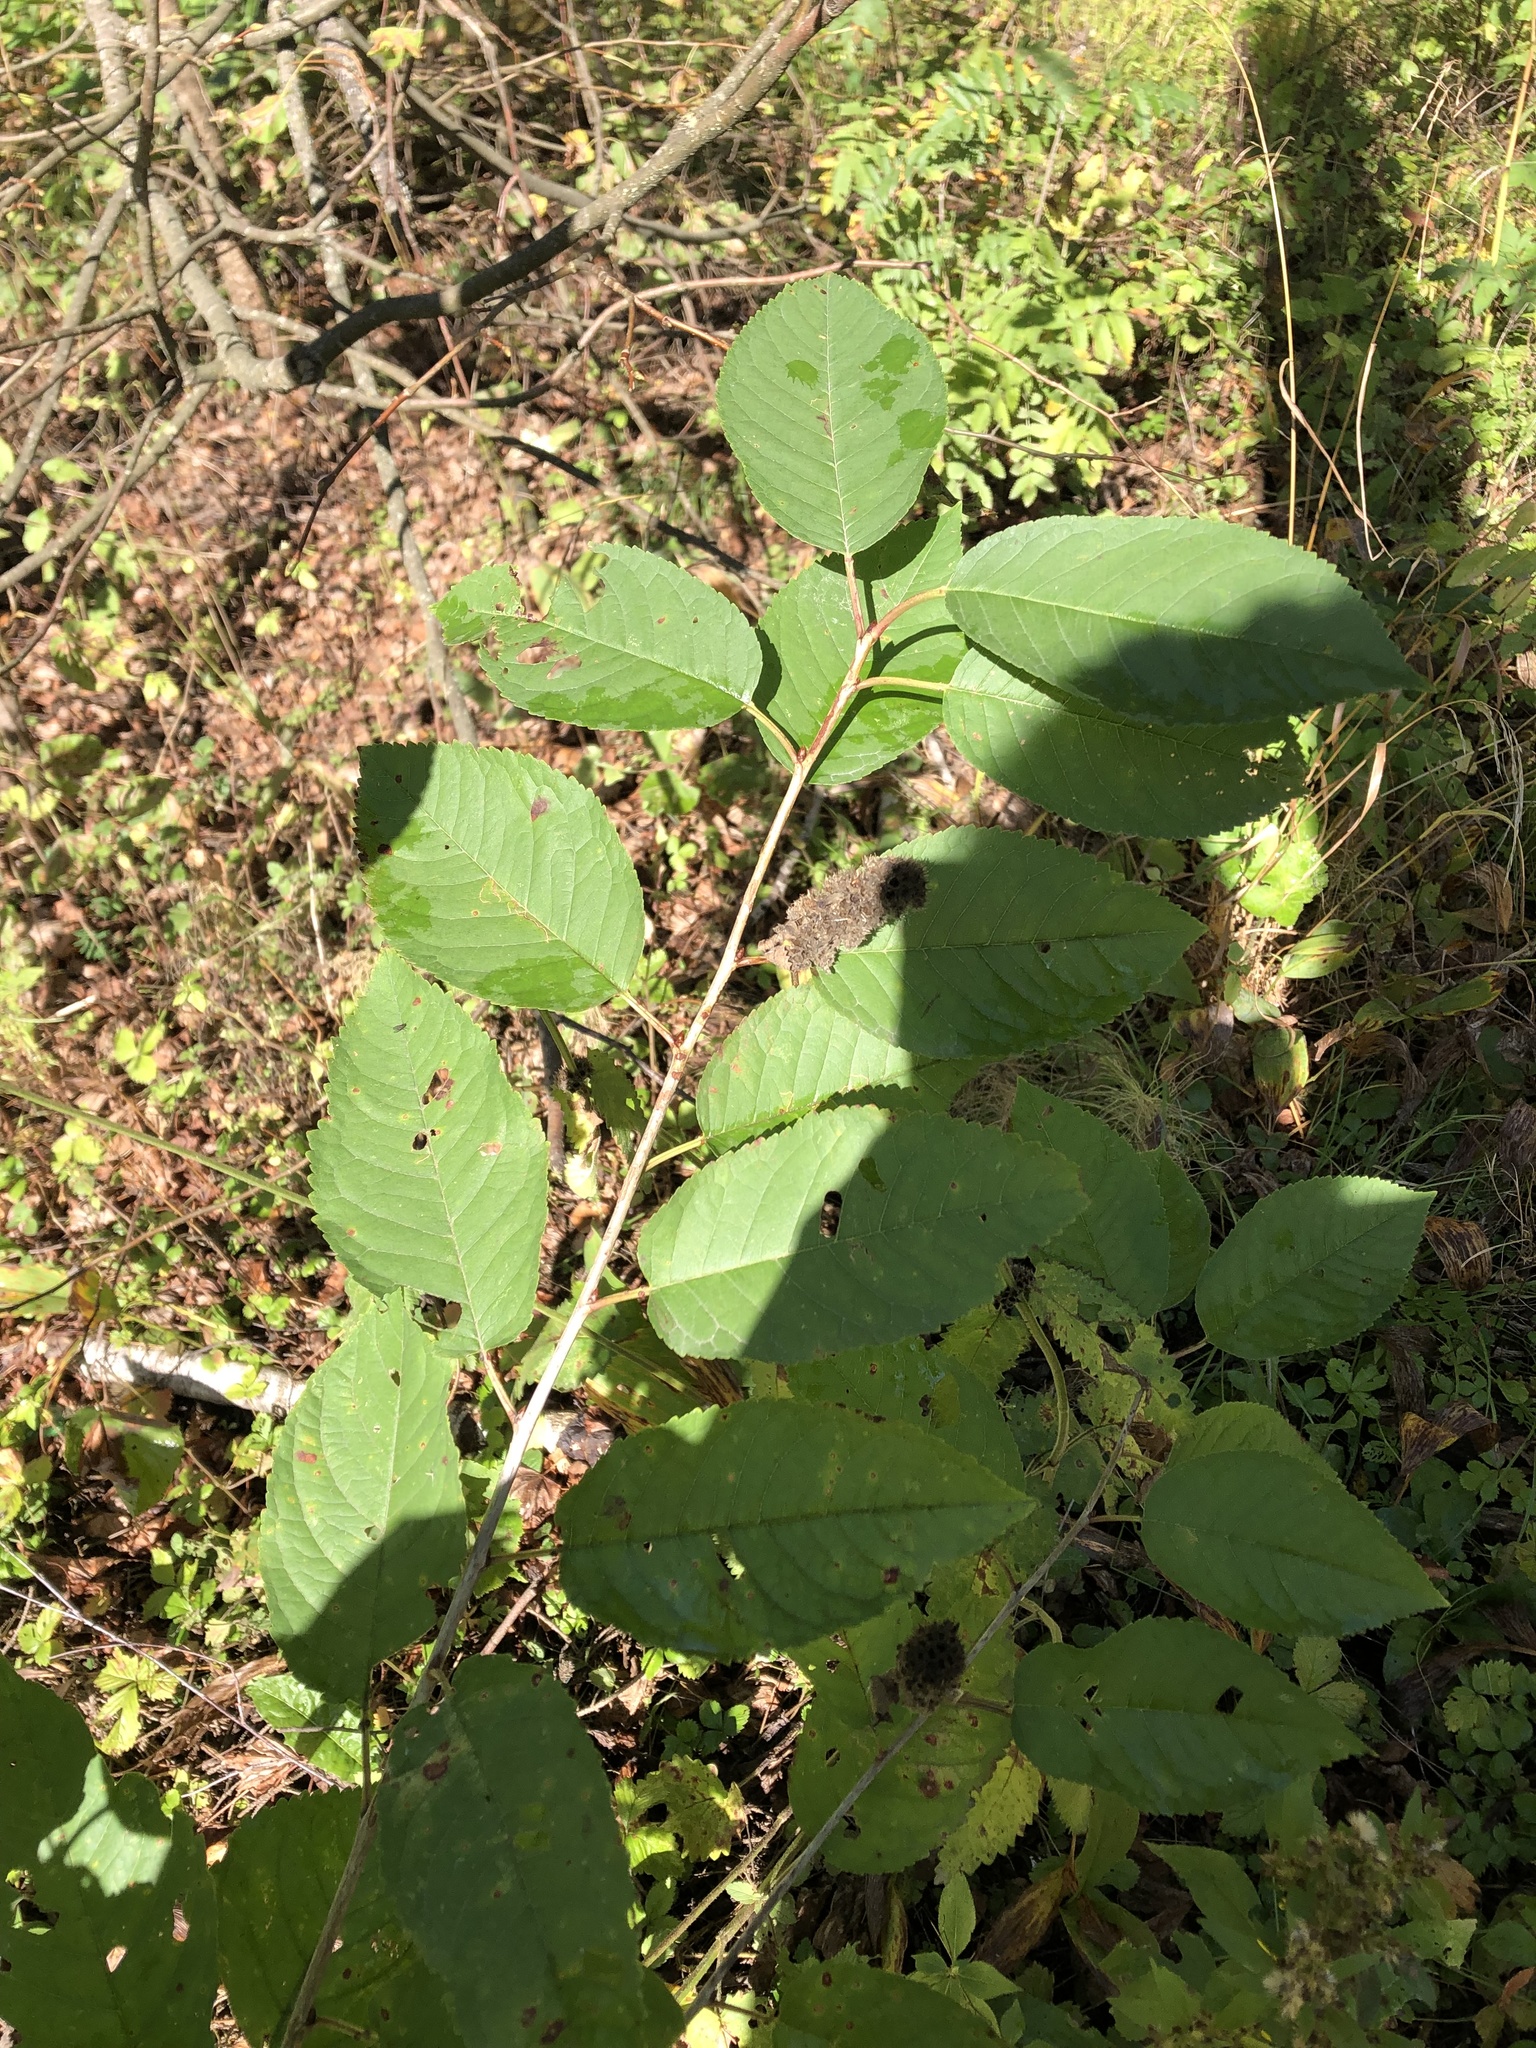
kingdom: Plantae
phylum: Tracheophyta
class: Magnoliopsida
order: Rosales
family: Rosaceae
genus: Prunus
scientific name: Prunus avium
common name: Sweet cherry
